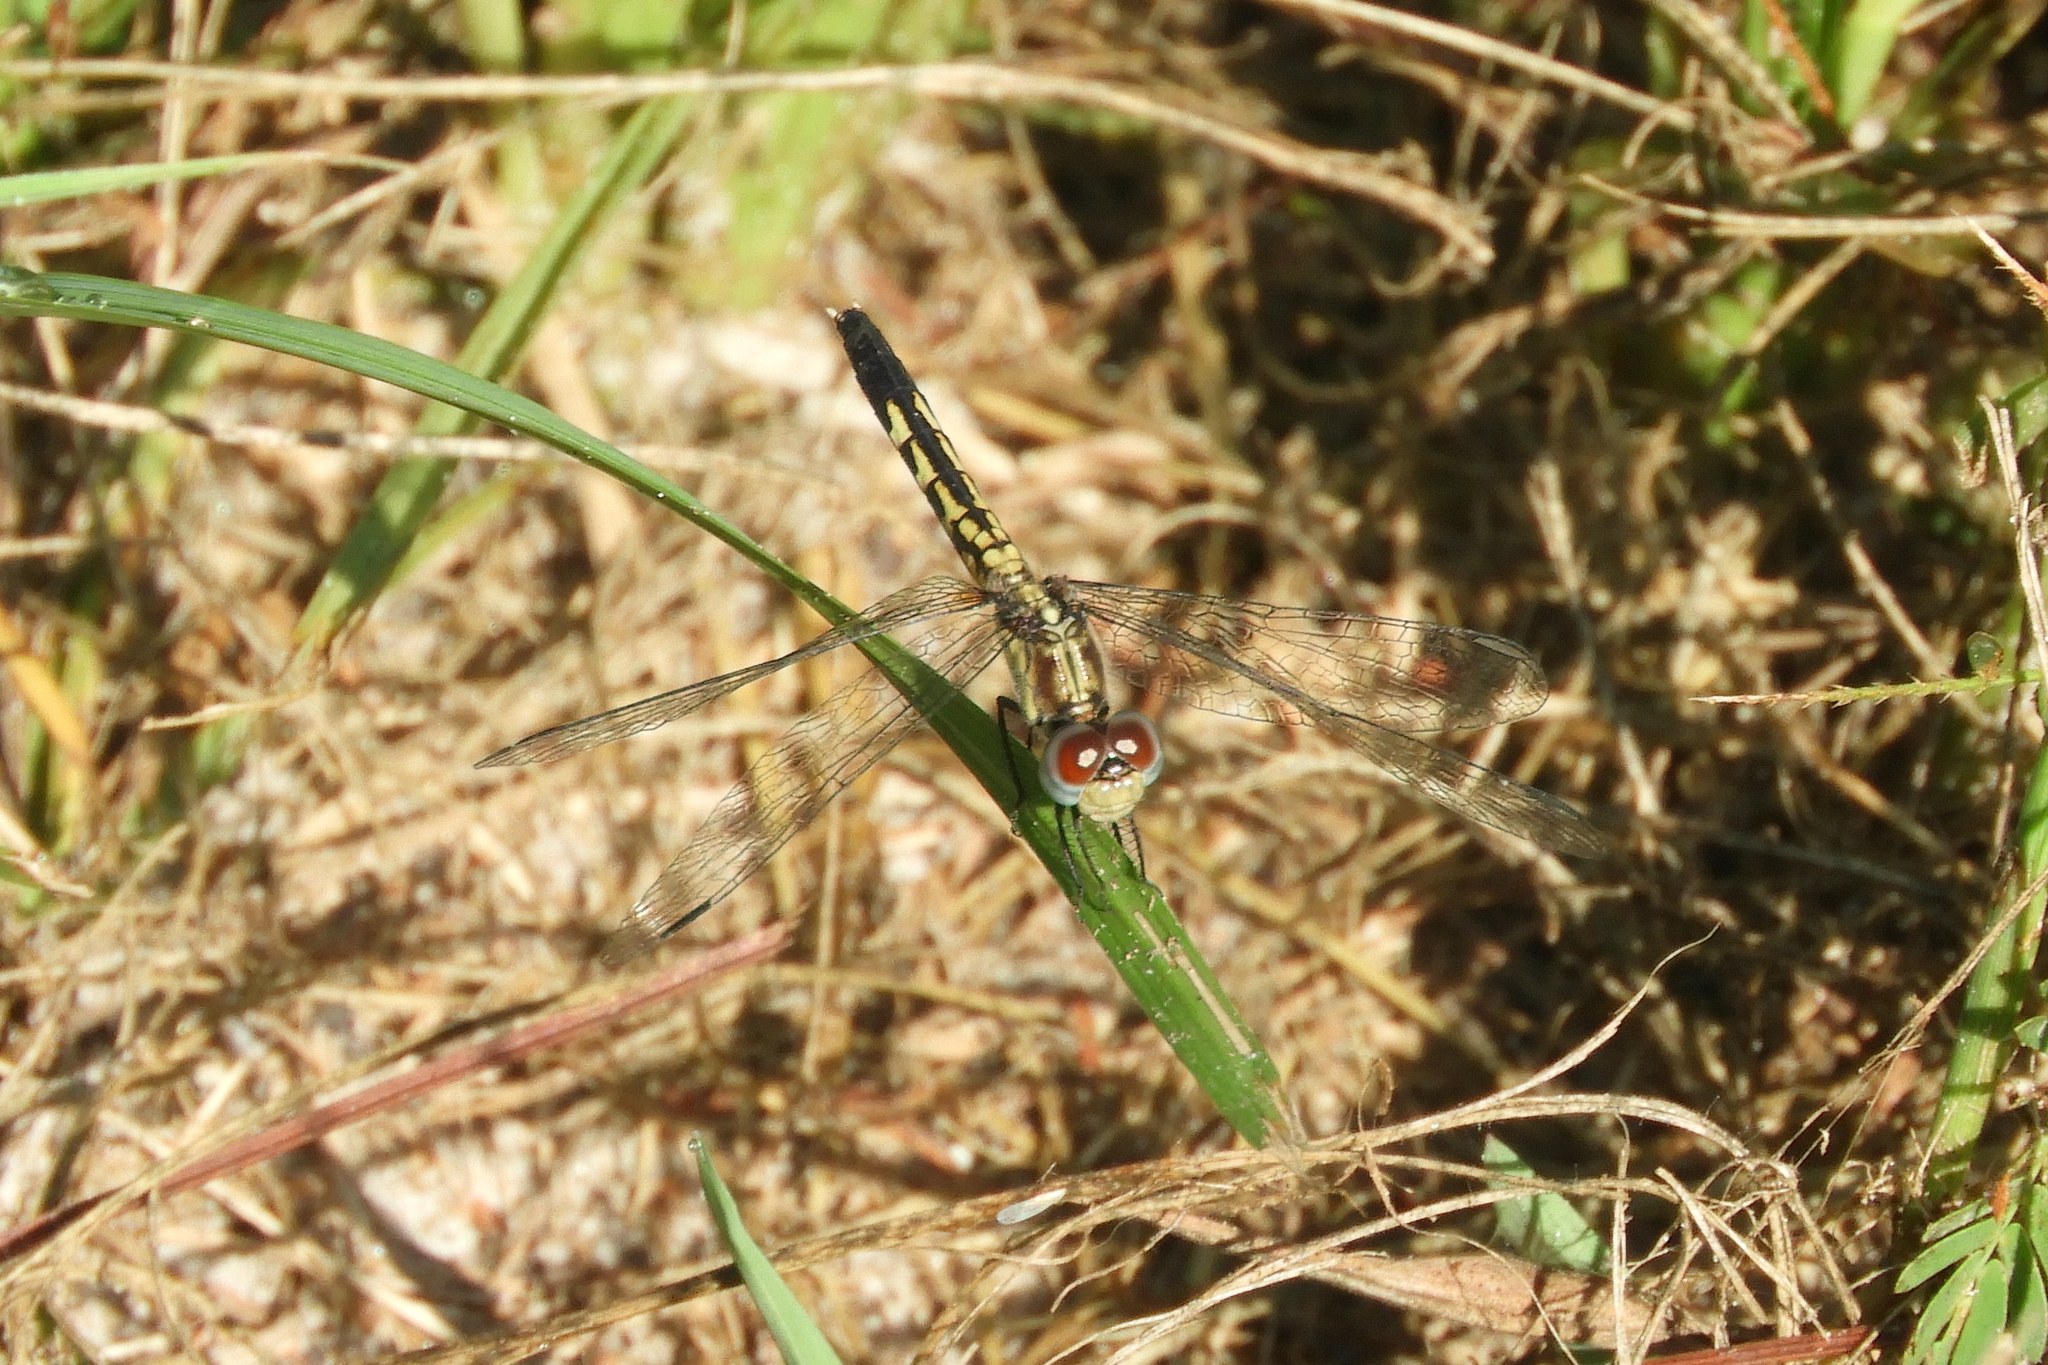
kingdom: Animalia
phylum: Arthropoda
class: Insecta
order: Odonata
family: Libellulidae
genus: Erythrodiplax
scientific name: Erythrodiplax minuscula
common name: Little blue dragonlet
